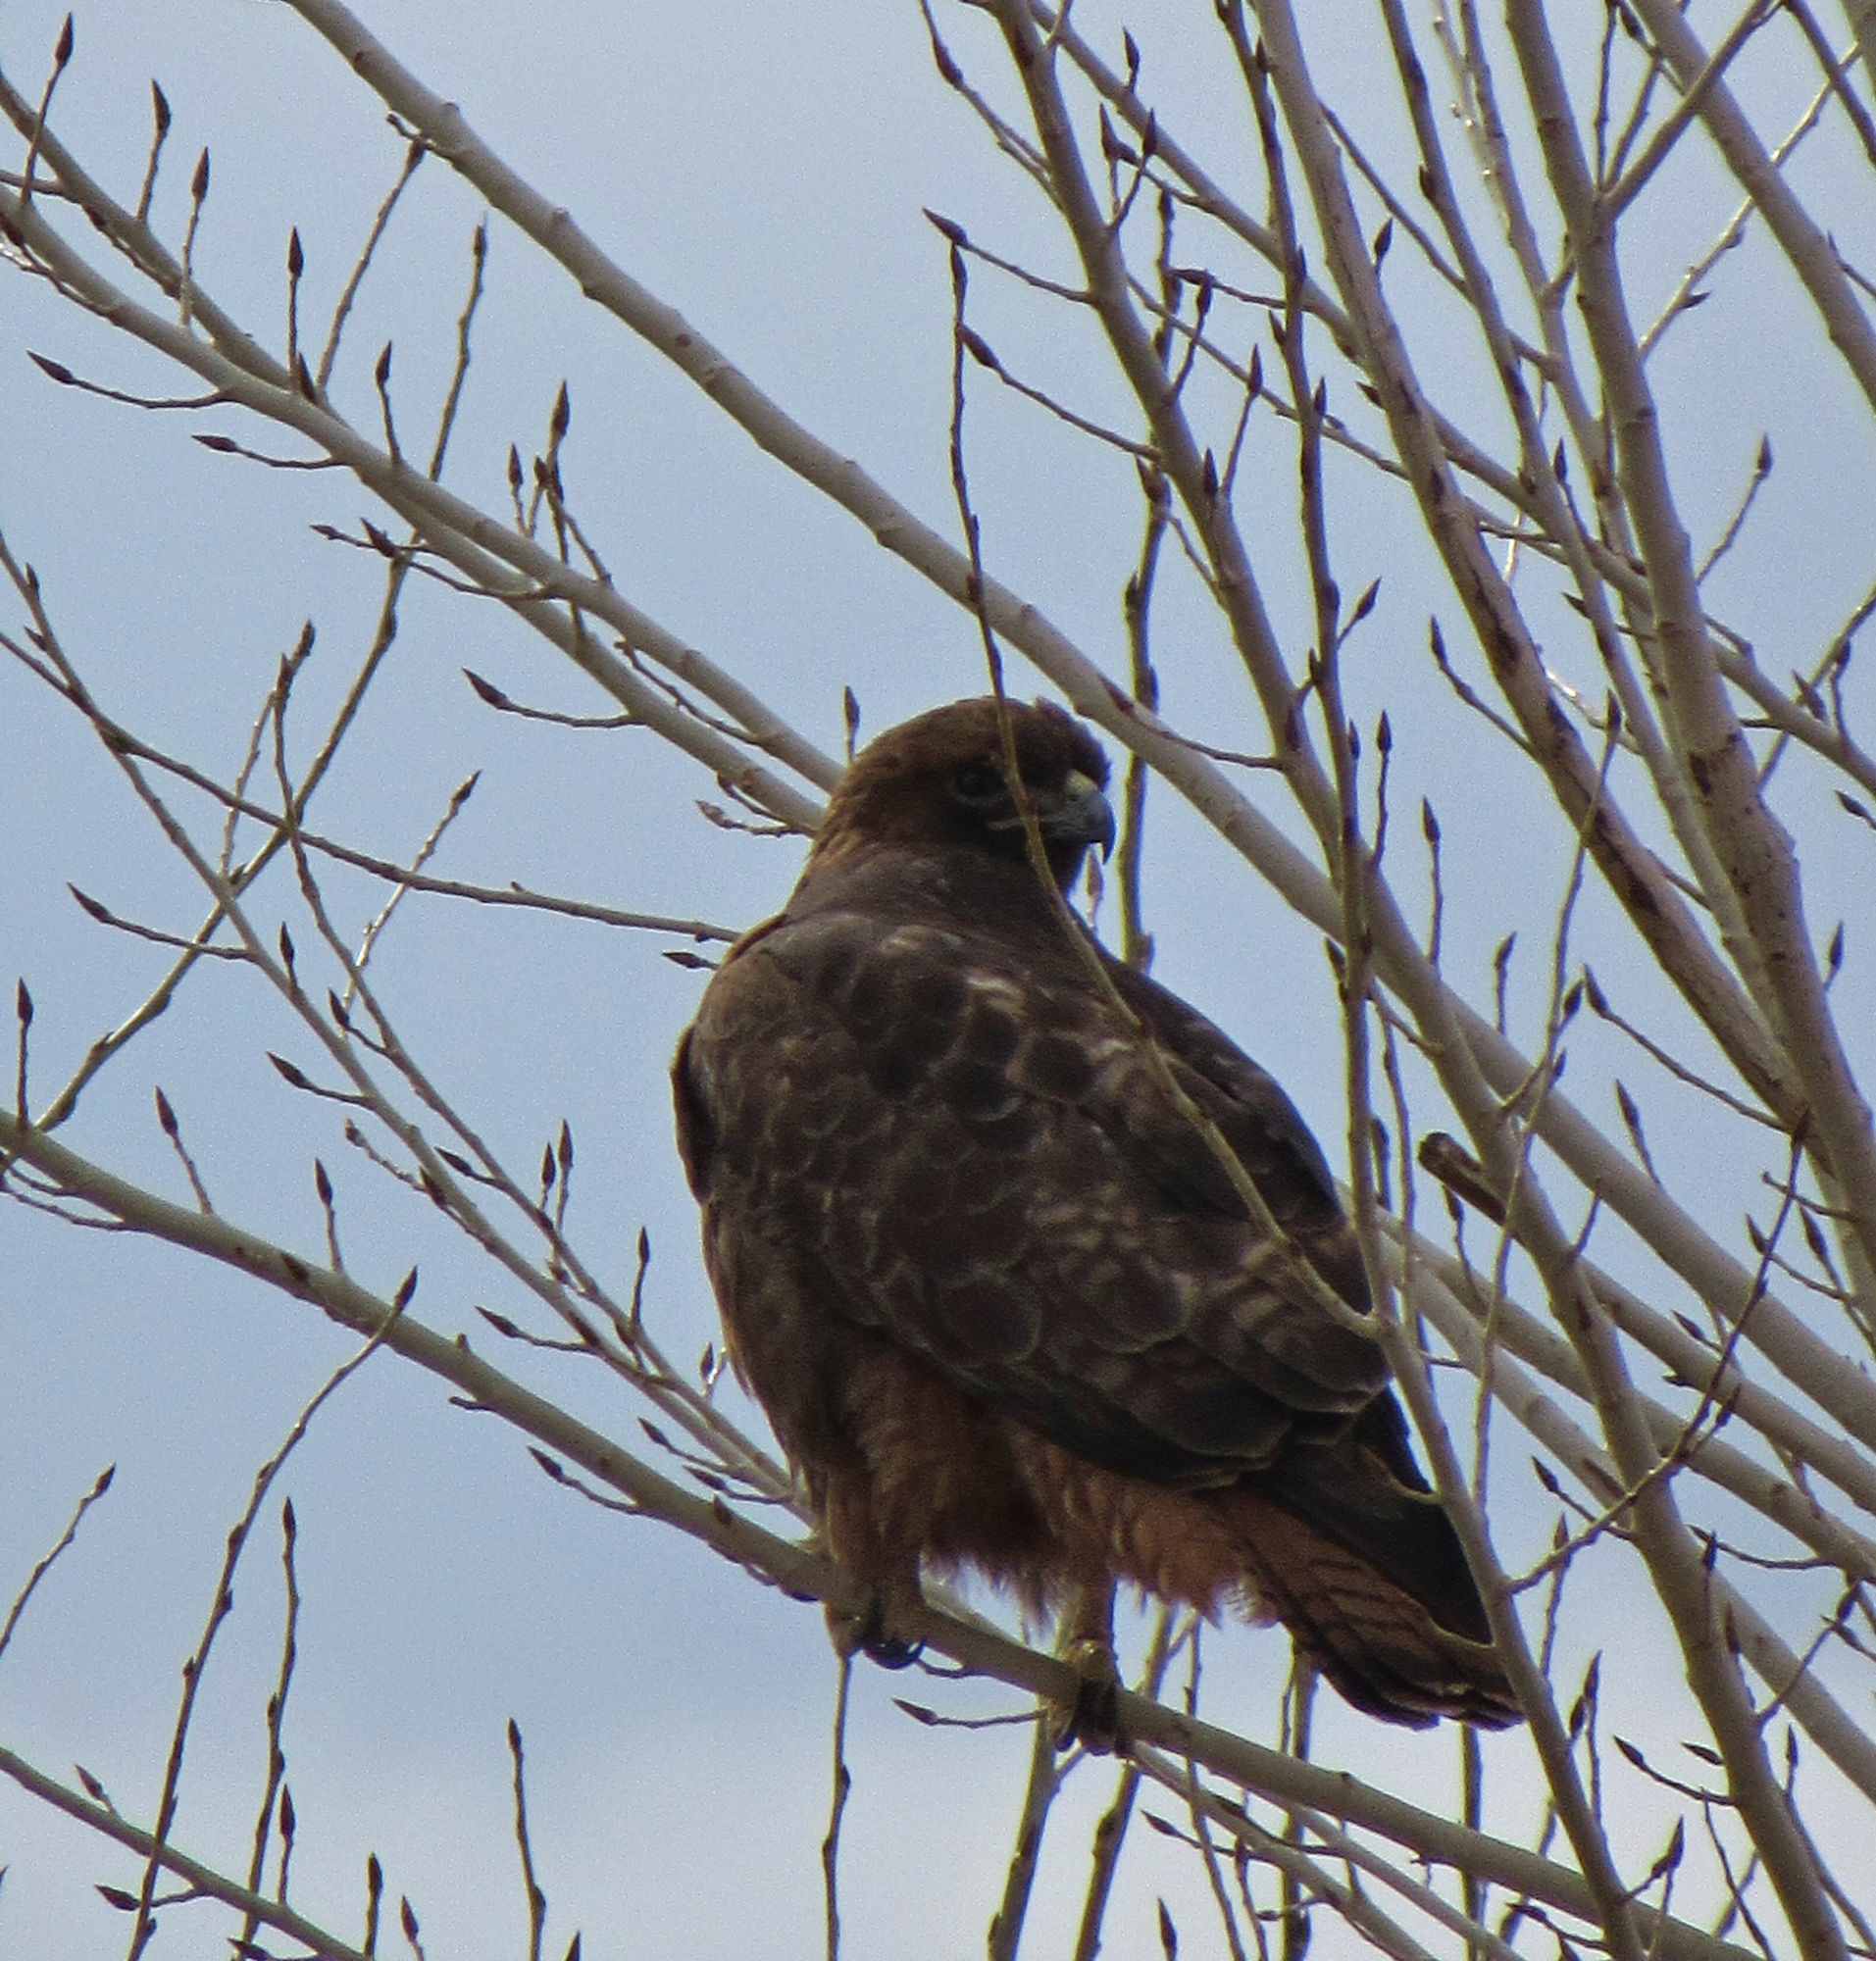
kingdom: Animalia
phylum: Chordata
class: Aves
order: Accipitriformes
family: Accipitridae
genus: Buteo
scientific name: Buteo jamaicensis
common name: Red-tailed hawk
